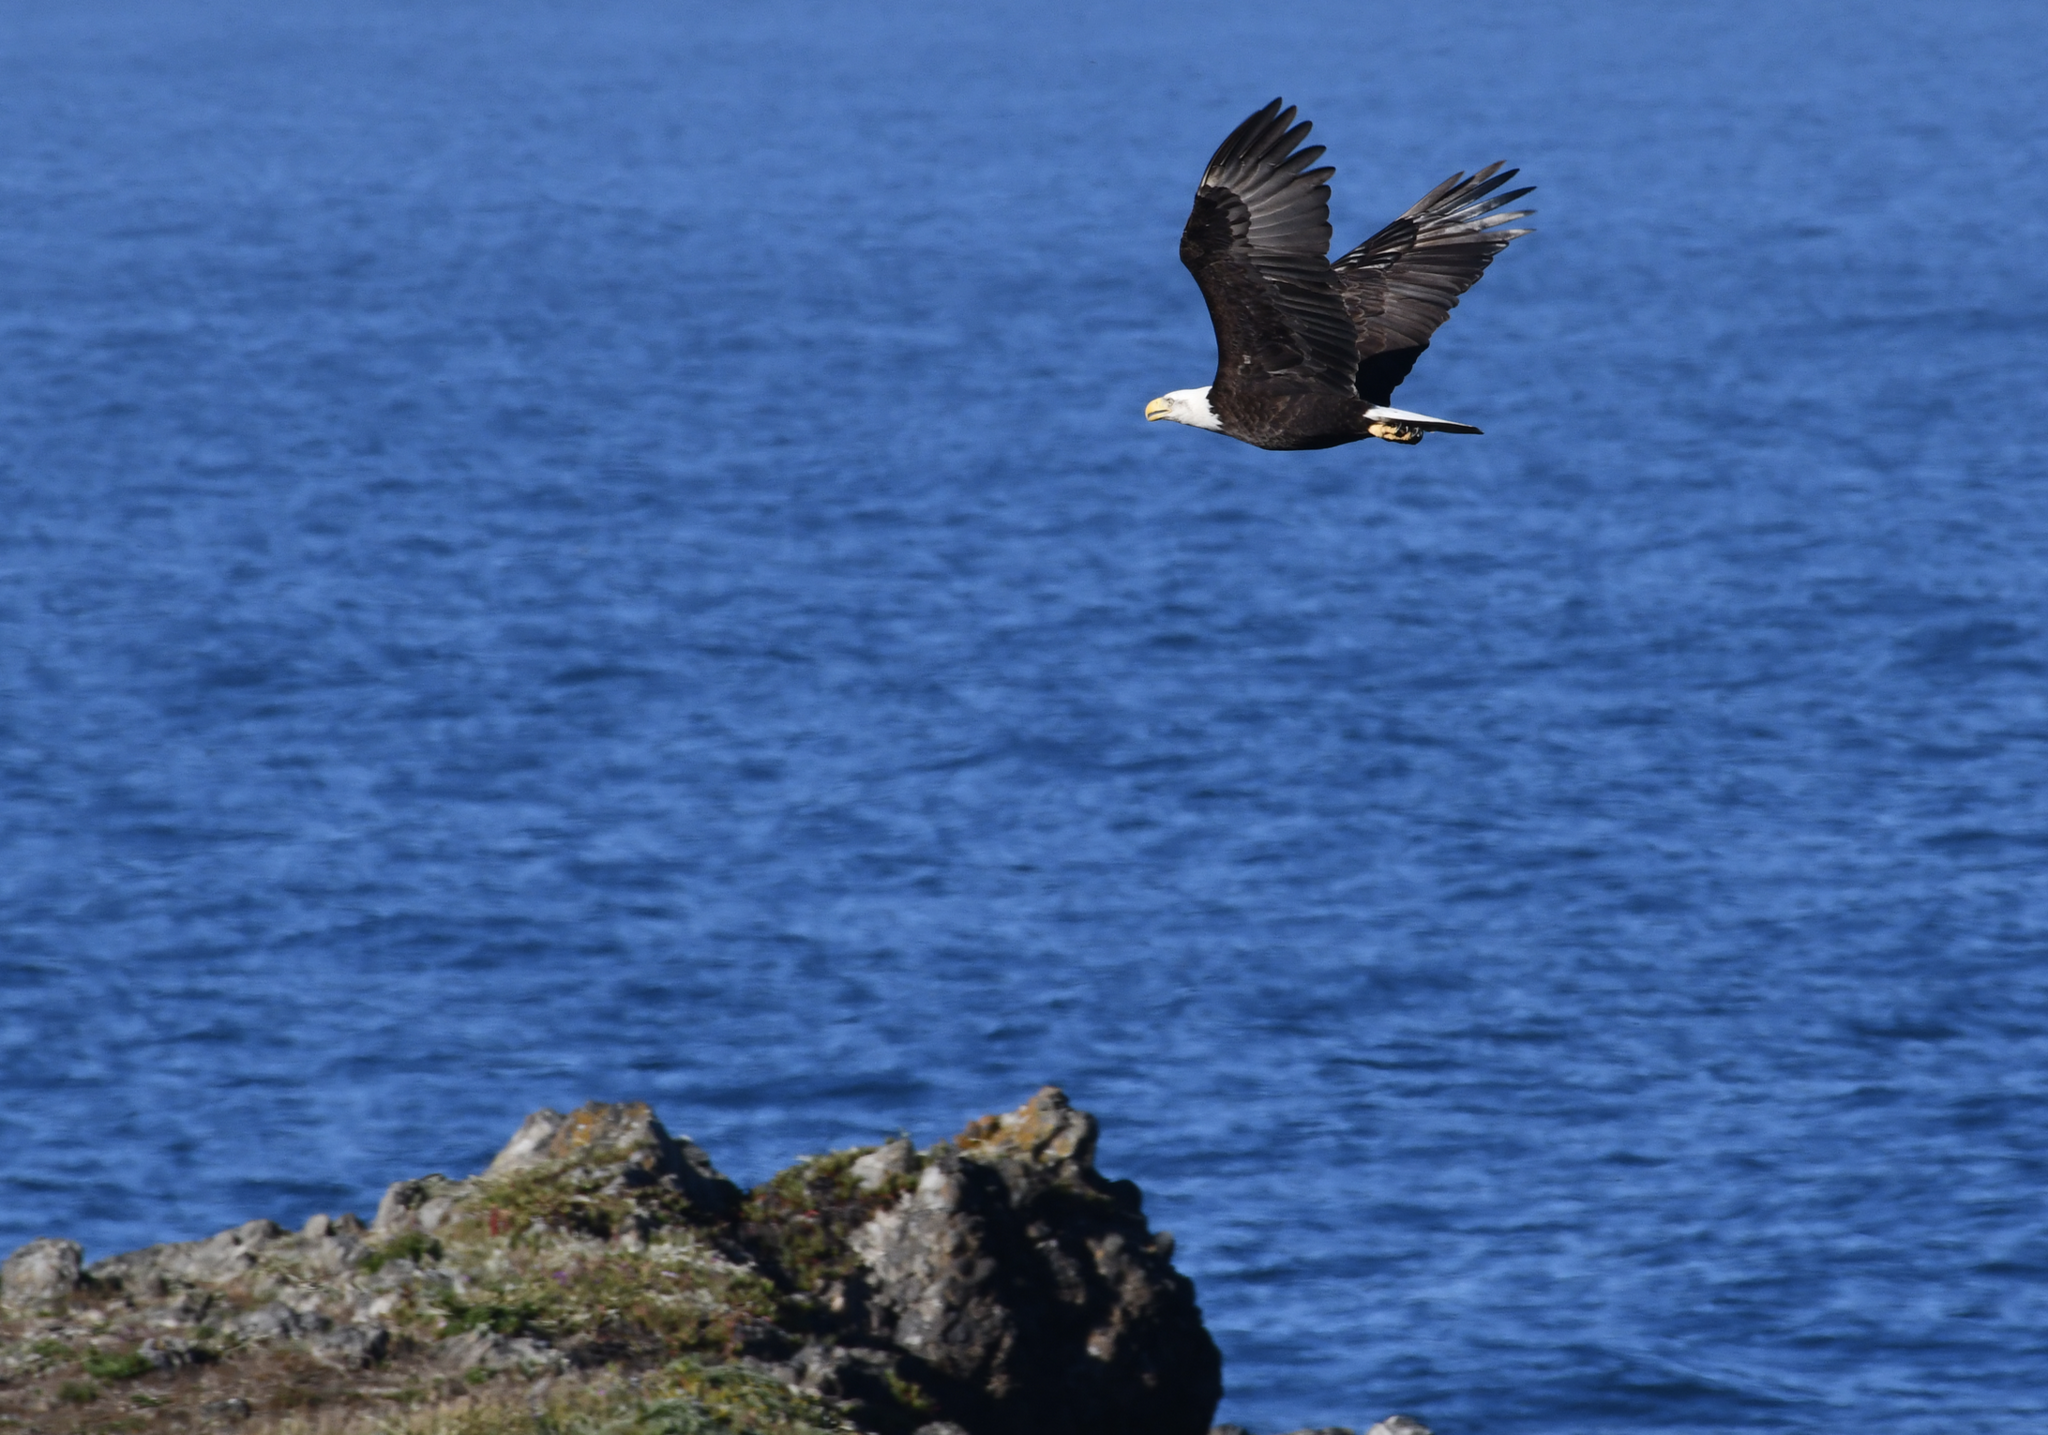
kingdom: Animalia
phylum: Chordata
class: Aves
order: Accipitriformes
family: Accipitridae
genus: Haliaeetus
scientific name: Haliaeetus leucocephalus
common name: Bald eagle
